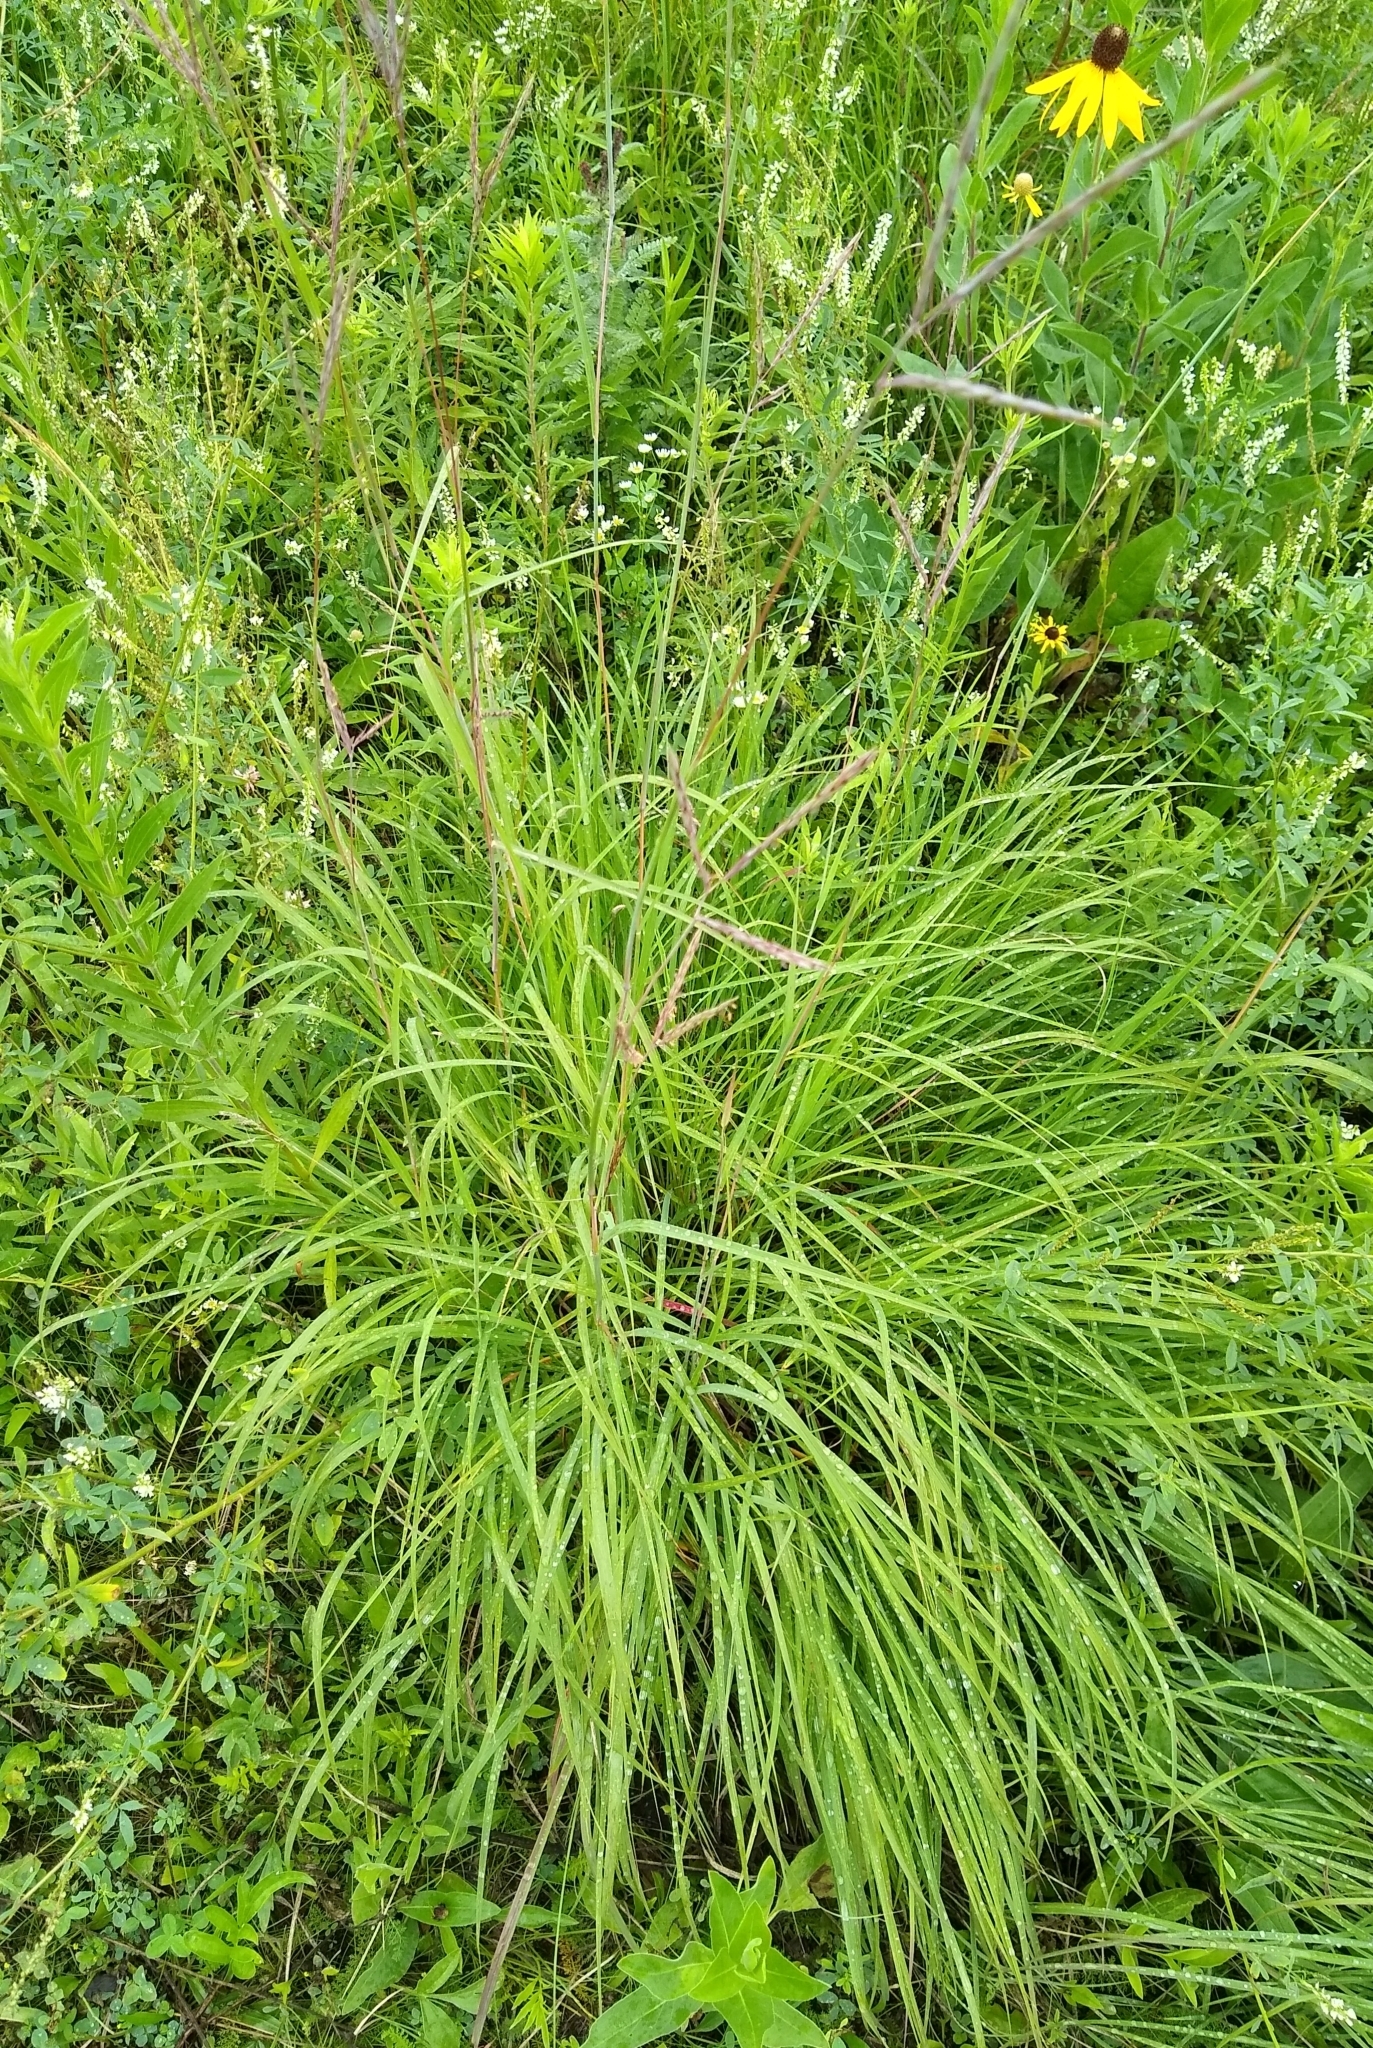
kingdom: Plantae
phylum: Tracheophyta
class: Liliopsida
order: Poales
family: Poaceae
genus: Andropogon
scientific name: Andropogon gerardi
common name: Big bluestem
